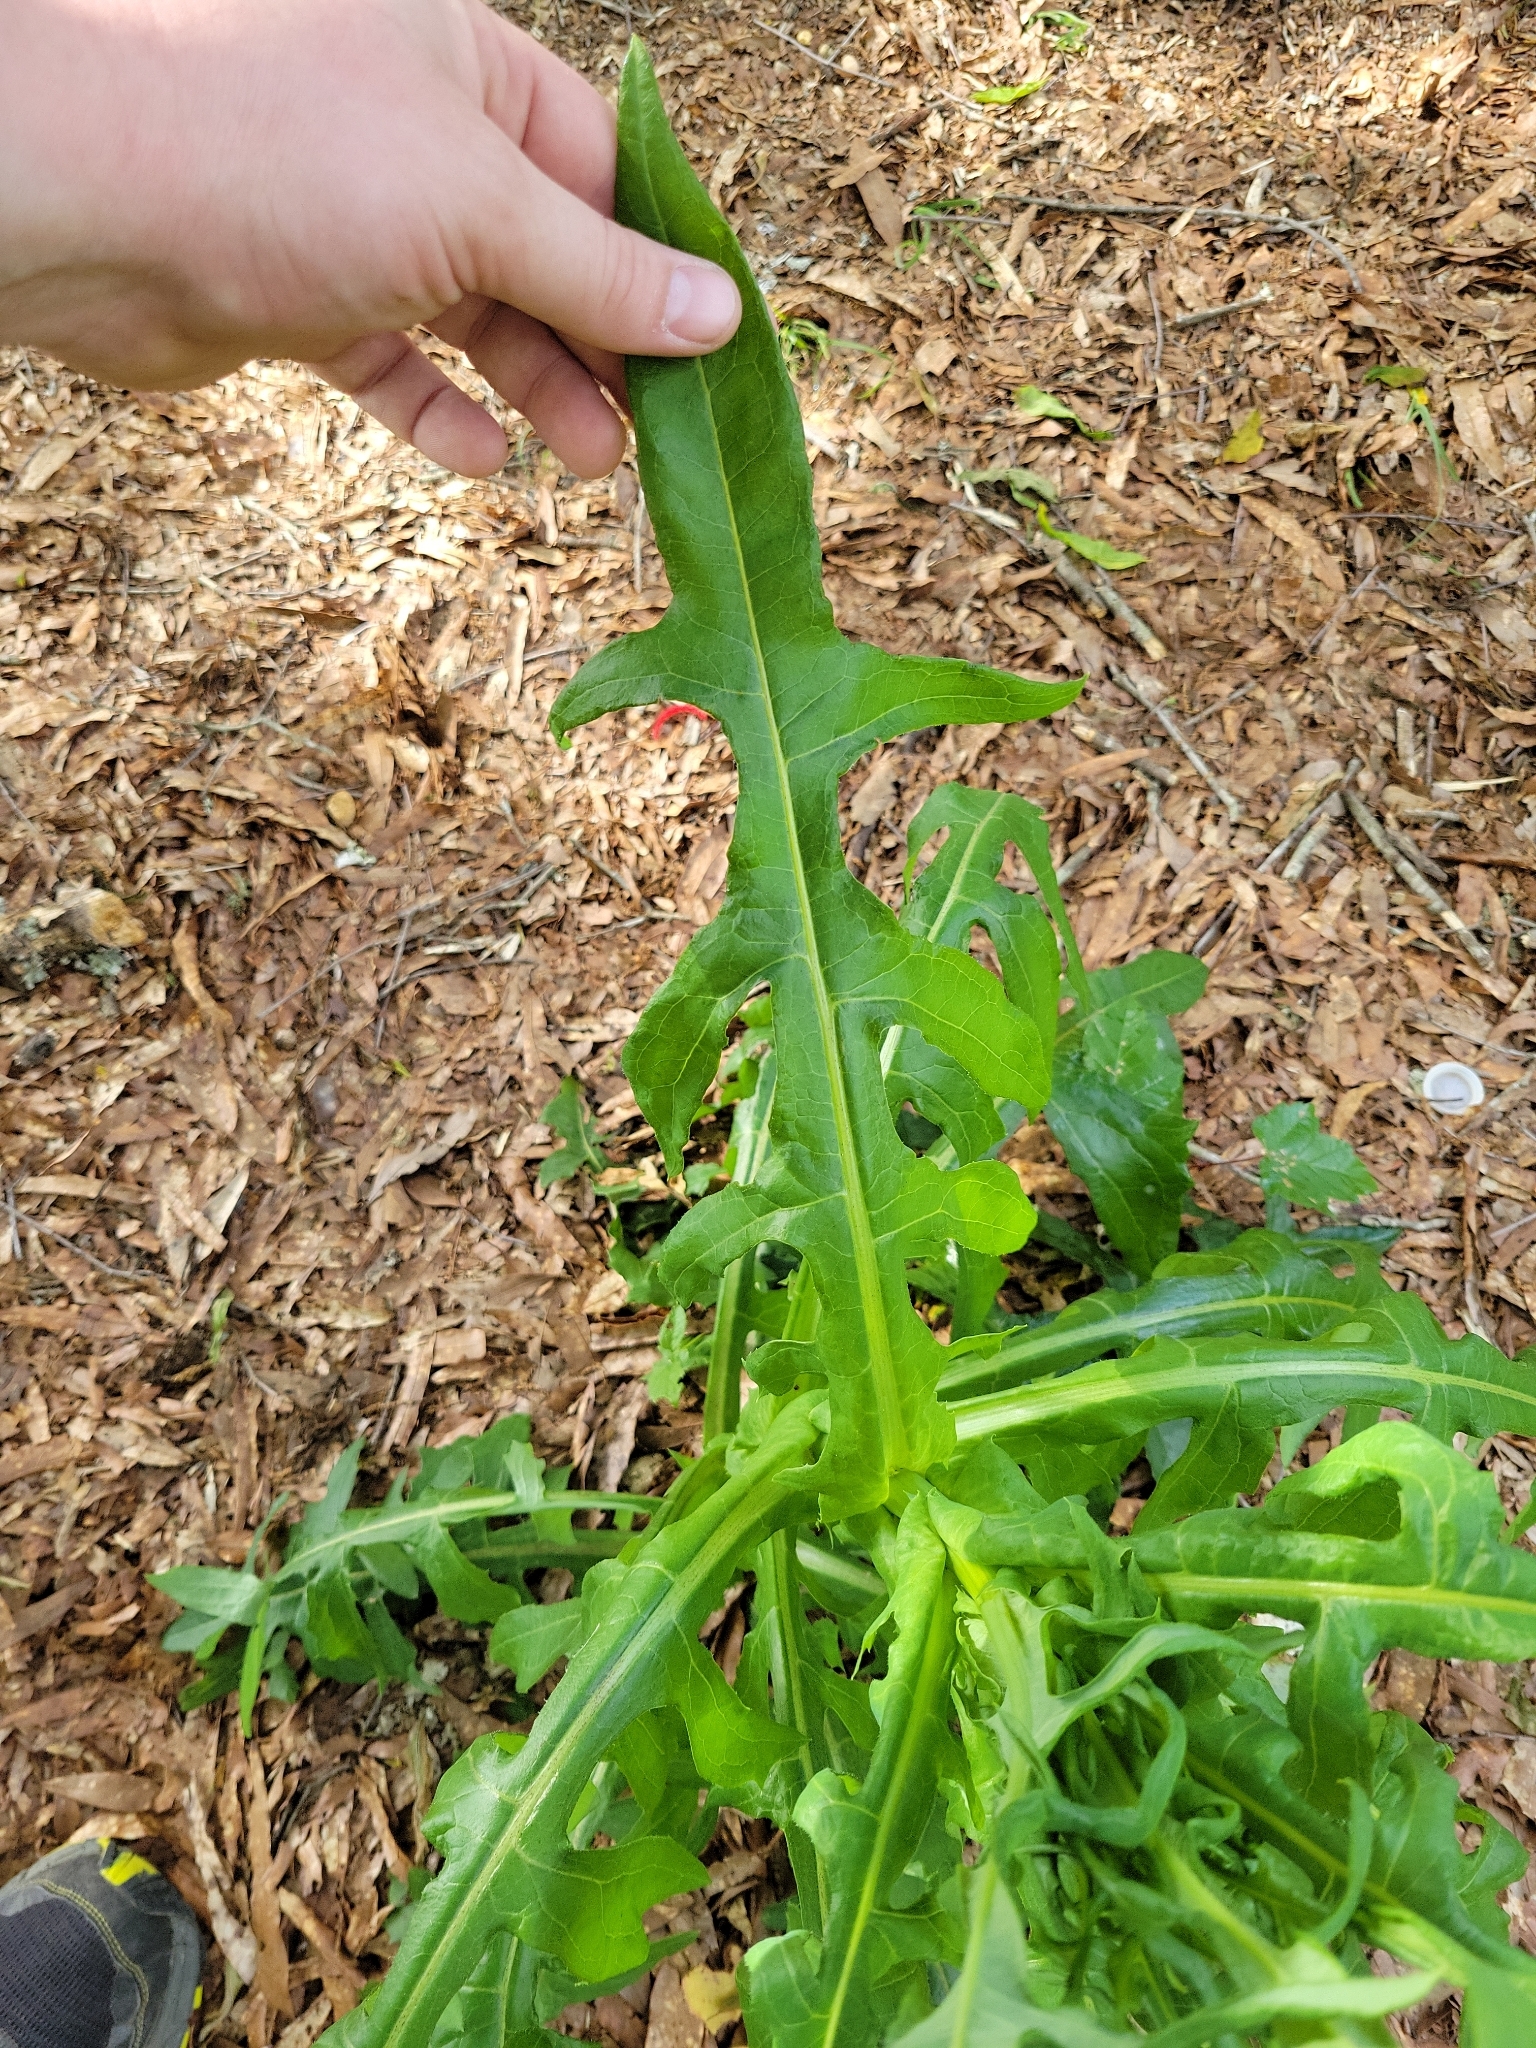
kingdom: Plantae
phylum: Tracheophyta
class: Magnoliopsida
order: Asterales
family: Asteraceae
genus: Lactuca
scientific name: Lactuca canadensis
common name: Canada lettuce
